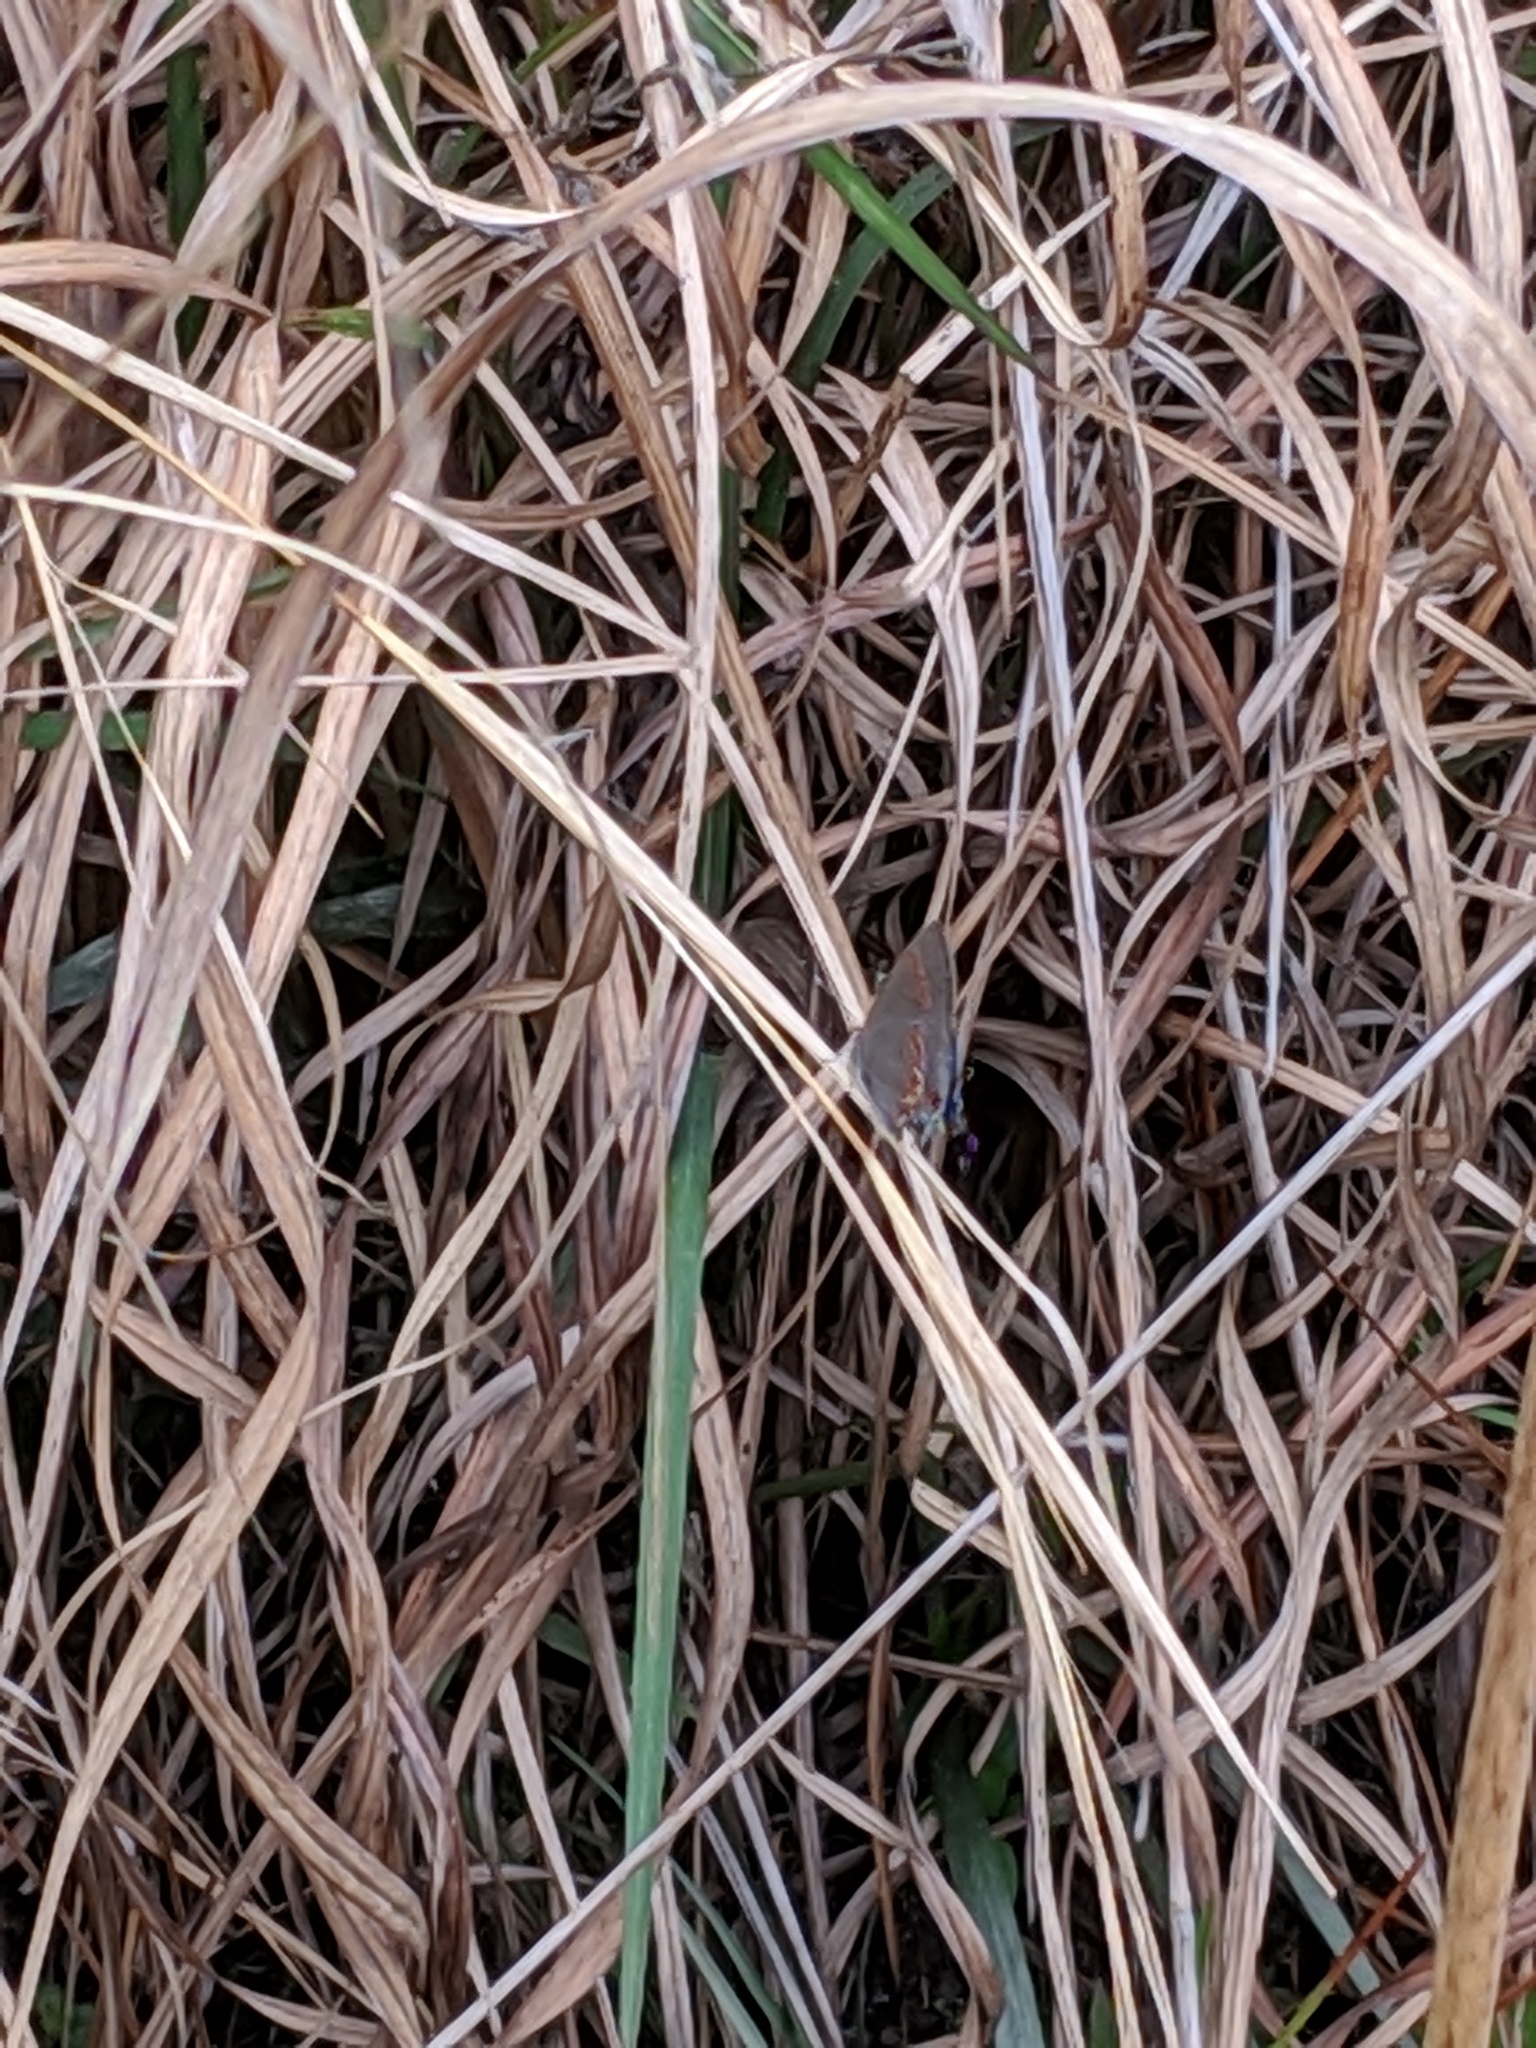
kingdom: Animalia
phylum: Arthropoda
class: Insecta
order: Lepidoptera
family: Lycaenidae
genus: Calycopis
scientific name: Calycopis cecrops
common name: Red-banded hairstreak
